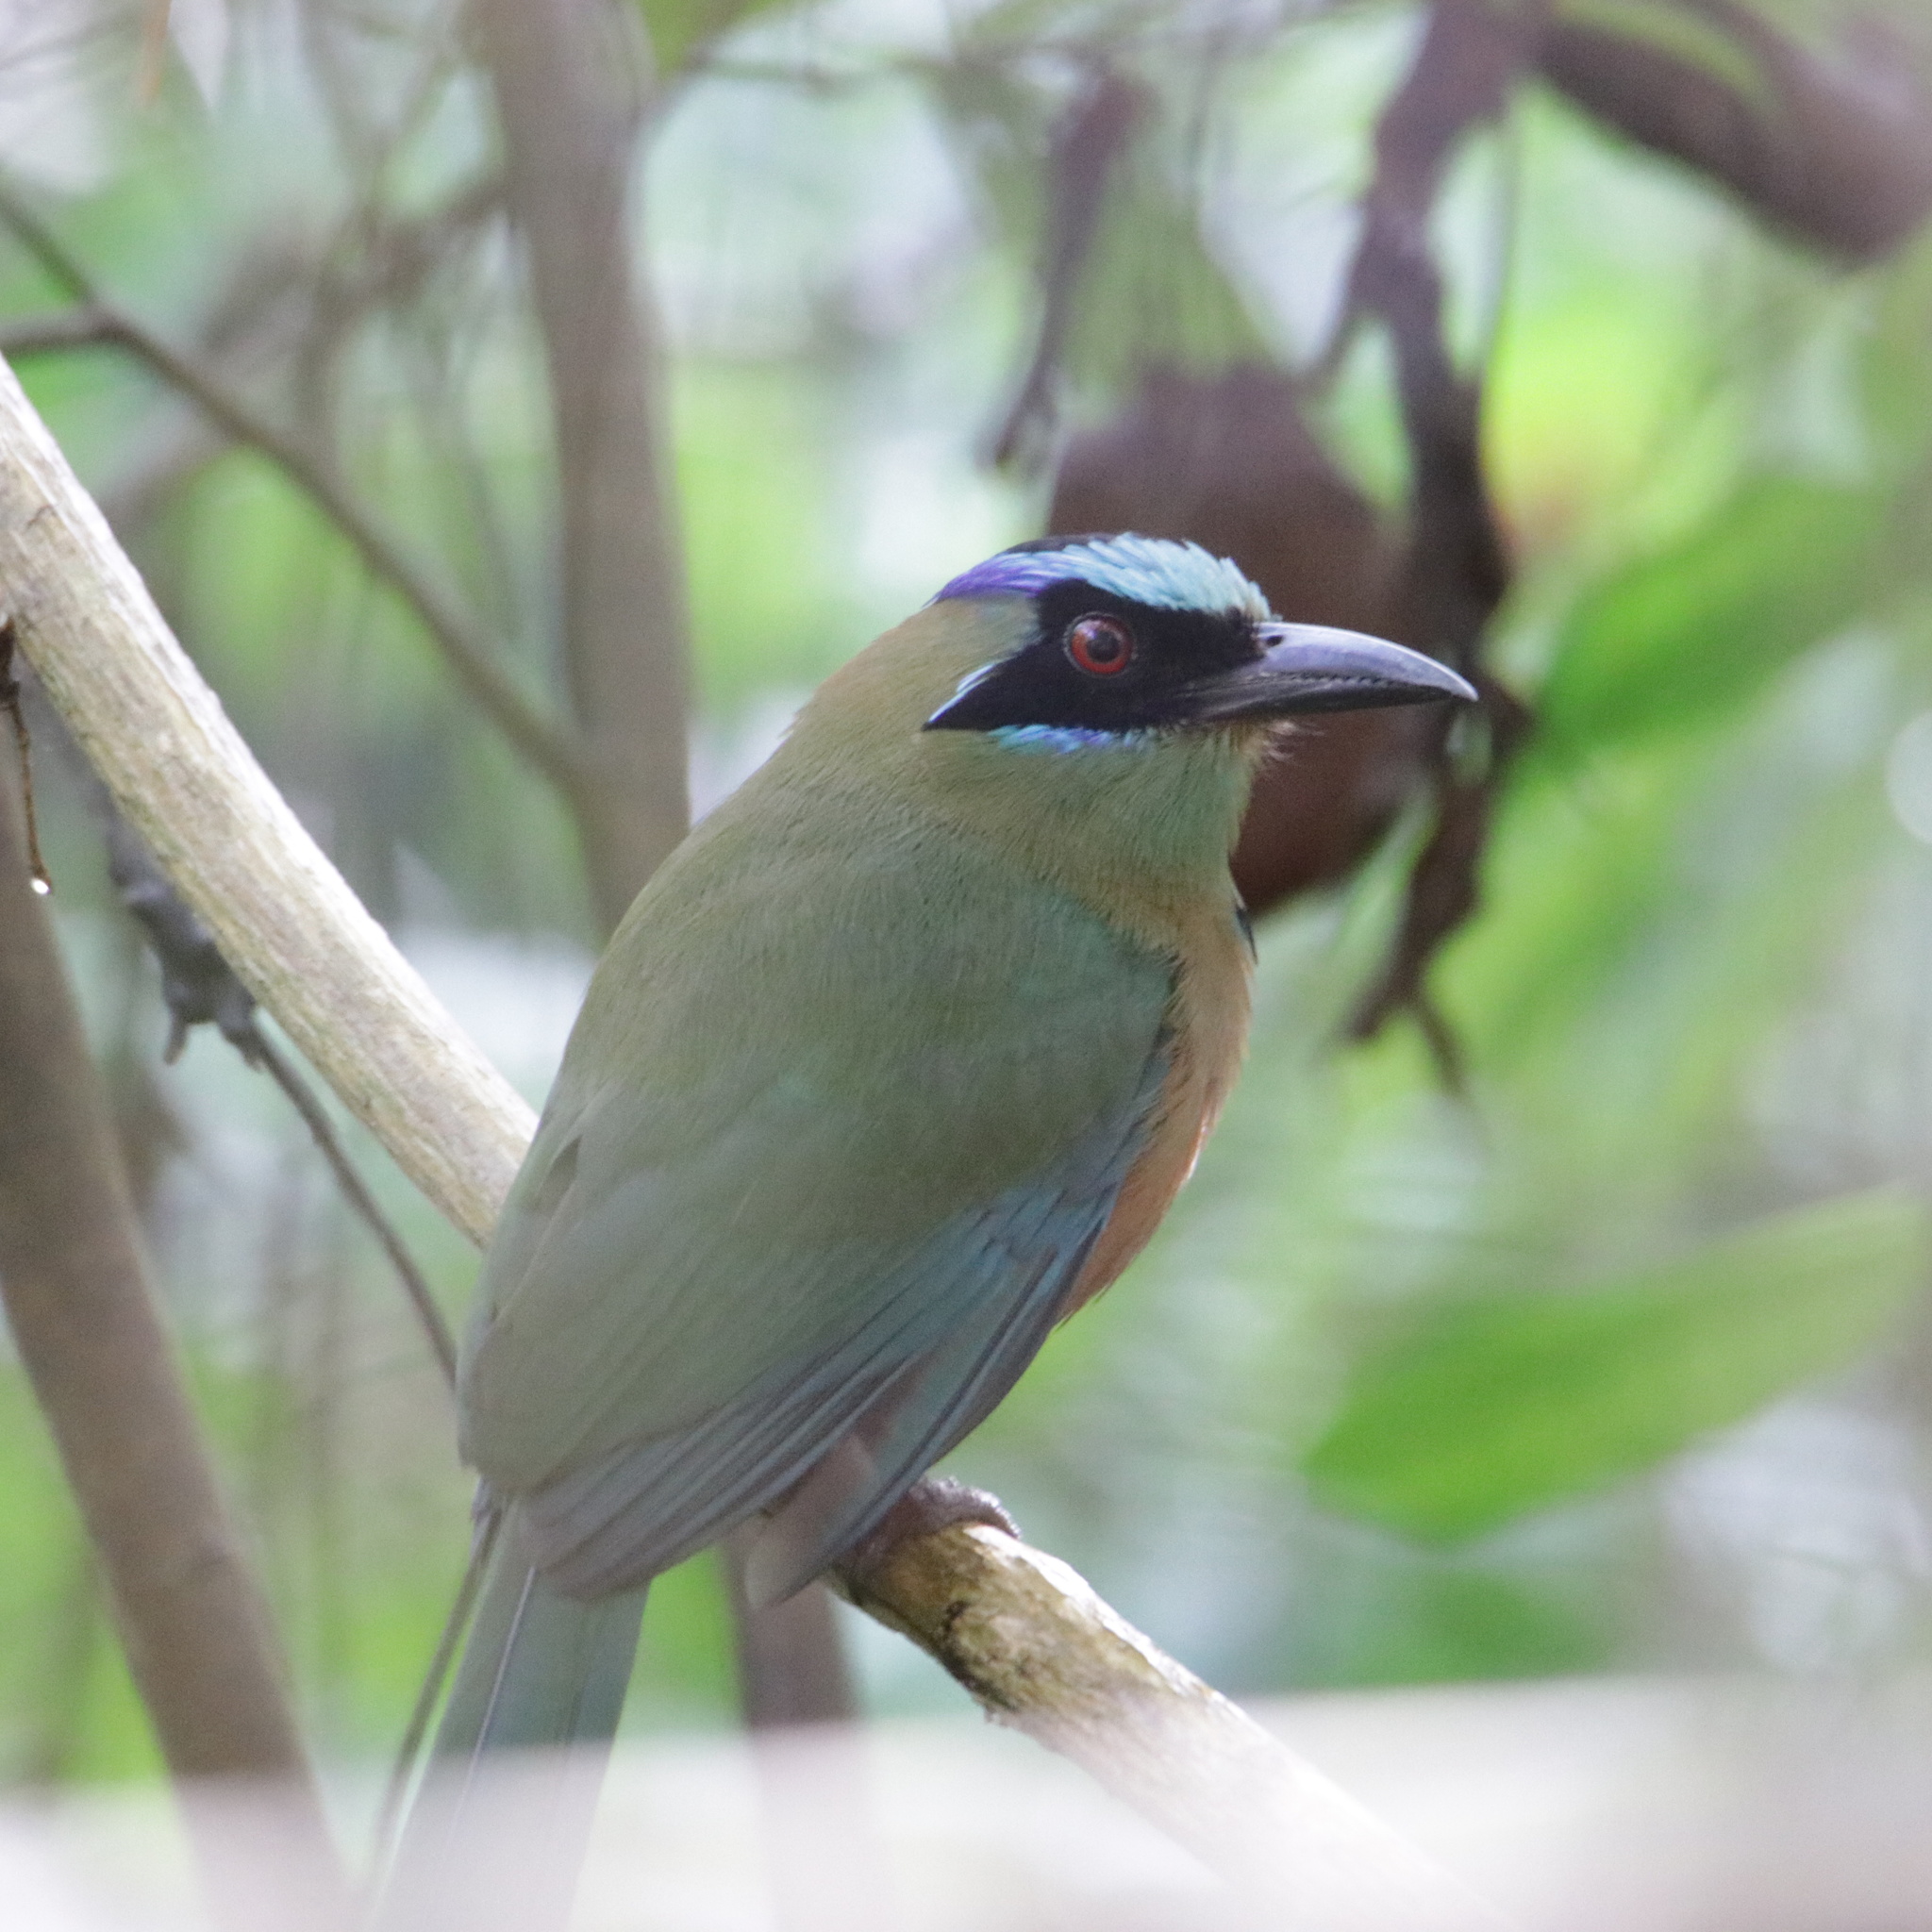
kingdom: Animalia
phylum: Chordata
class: Aves
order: Coraciiformes
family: Momotidae
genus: Momotus
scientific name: Momotus subrufescens
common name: Whooping motmot
